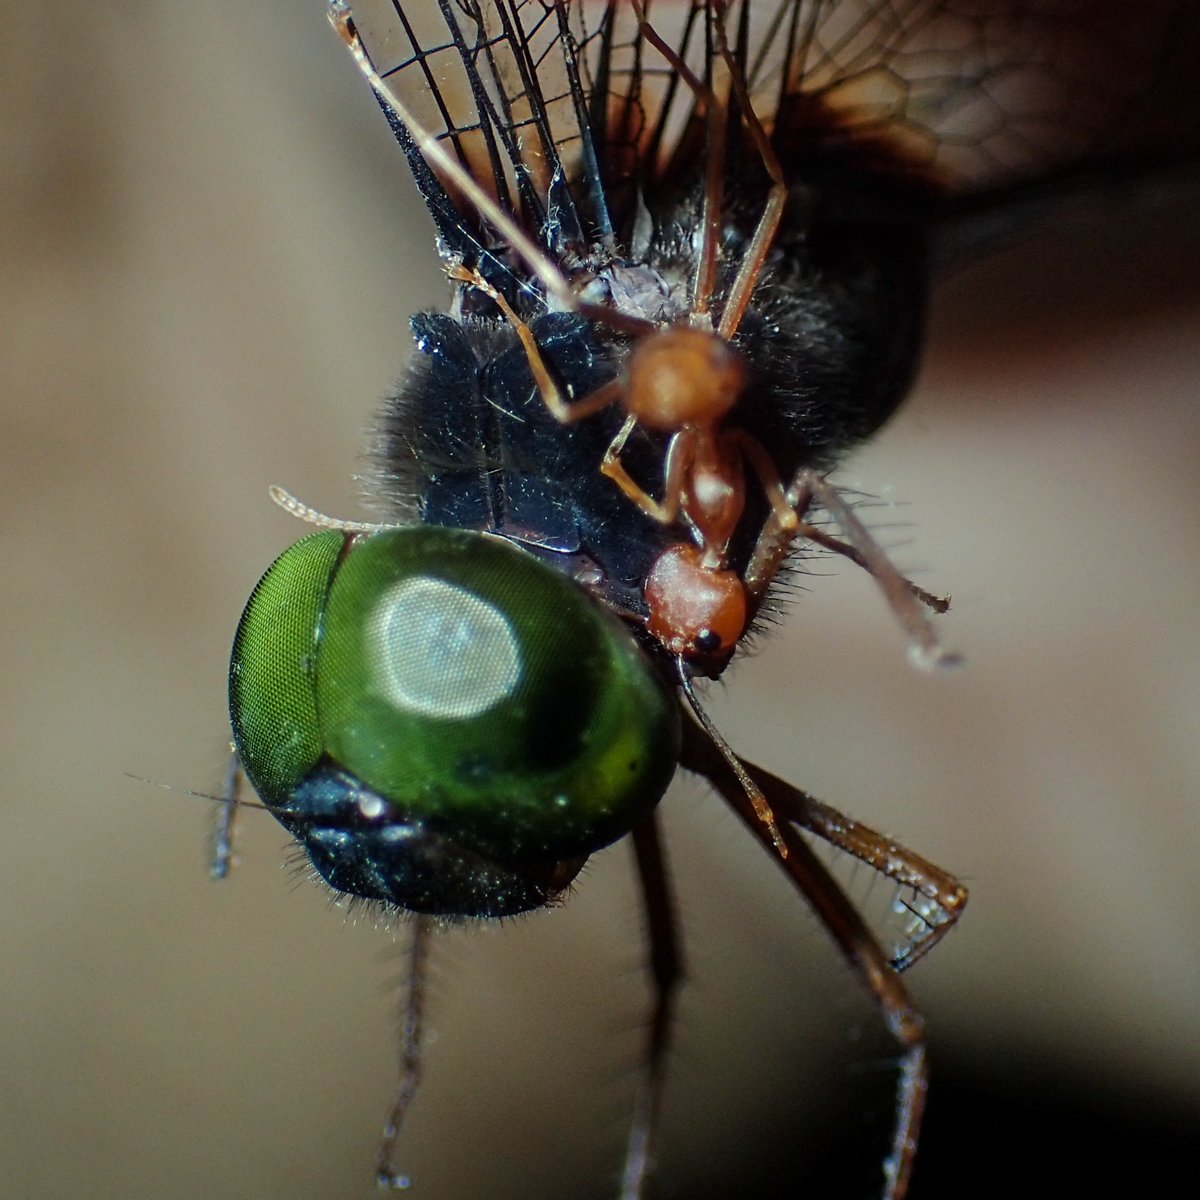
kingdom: Animalia
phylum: Arthropoda
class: Insecta
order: Odonata
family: Libellulidae
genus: Zyxomma
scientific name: Zyxomma petiolatum
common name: Dingy dusk-darter
